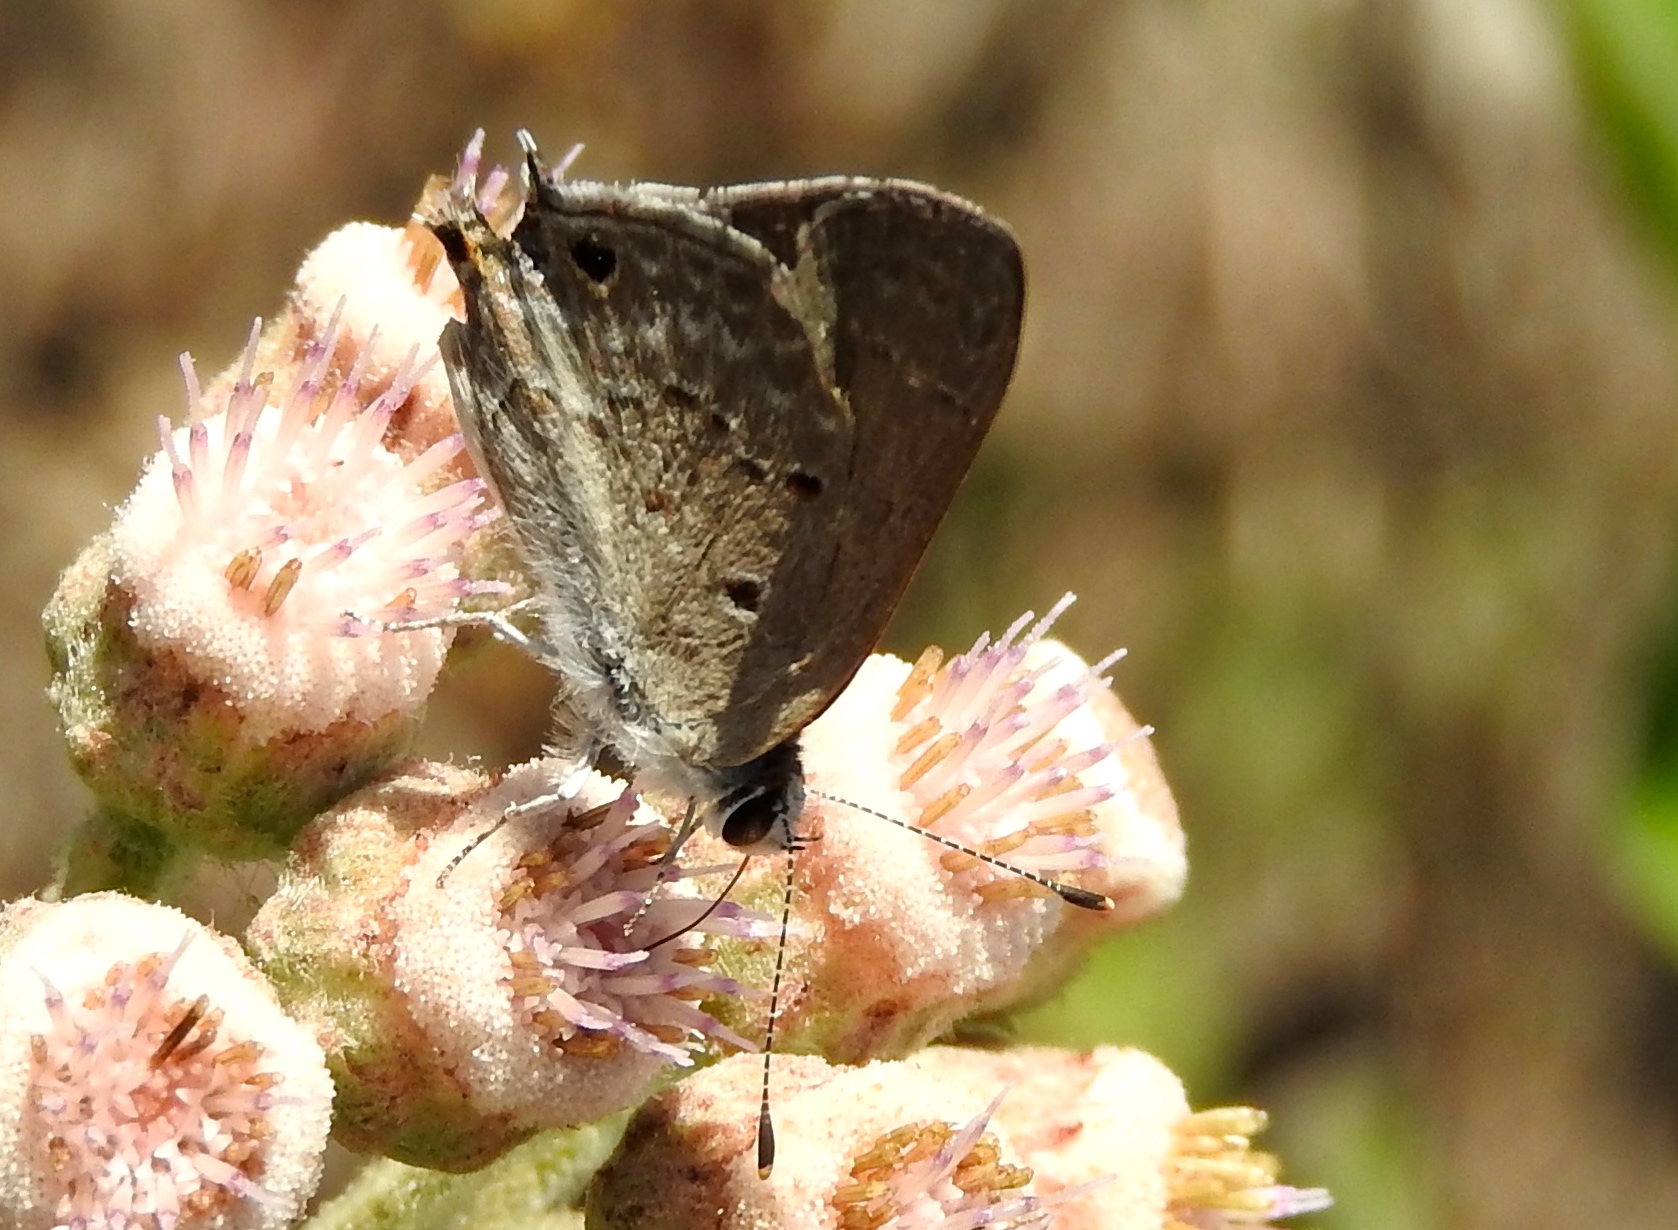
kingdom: Animalia
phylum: Arthropoda
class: Insecta
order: Lepidoptera
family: Lycaenidae
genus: Callicista
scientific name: Callicista columella
